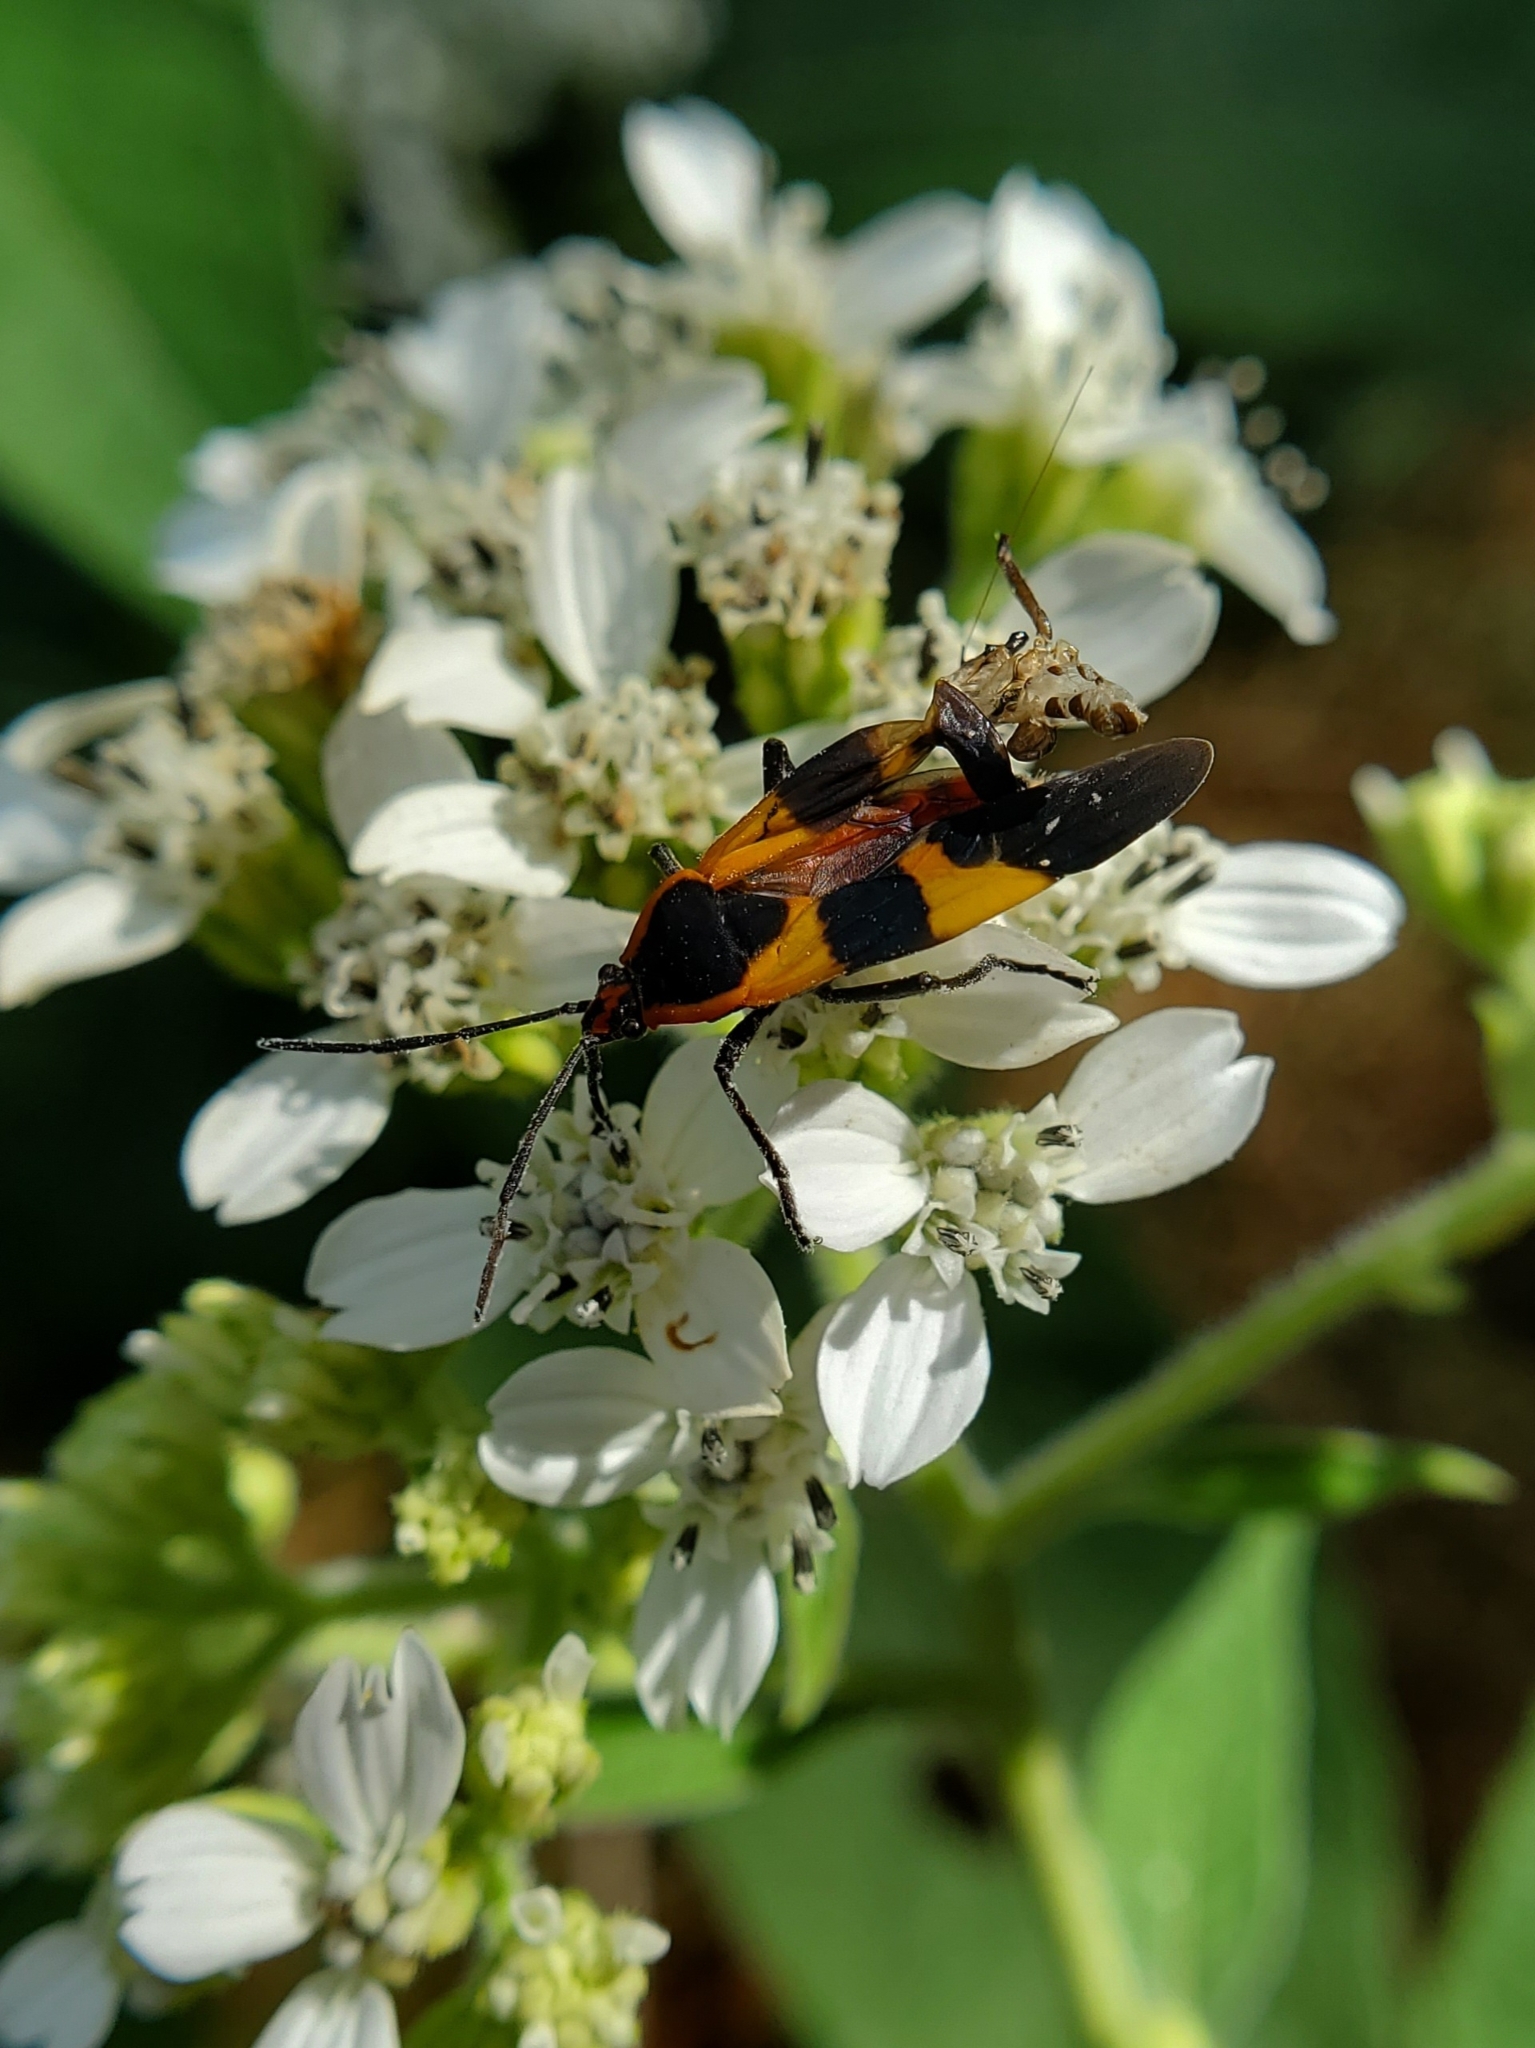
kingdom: Animalia
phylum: Arthropoda
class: Insecta
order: Hemiptera
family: Lygaeidae
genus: Oncopeltus
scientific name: Oncopeltus fasciatus
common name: Large milkweed bug
